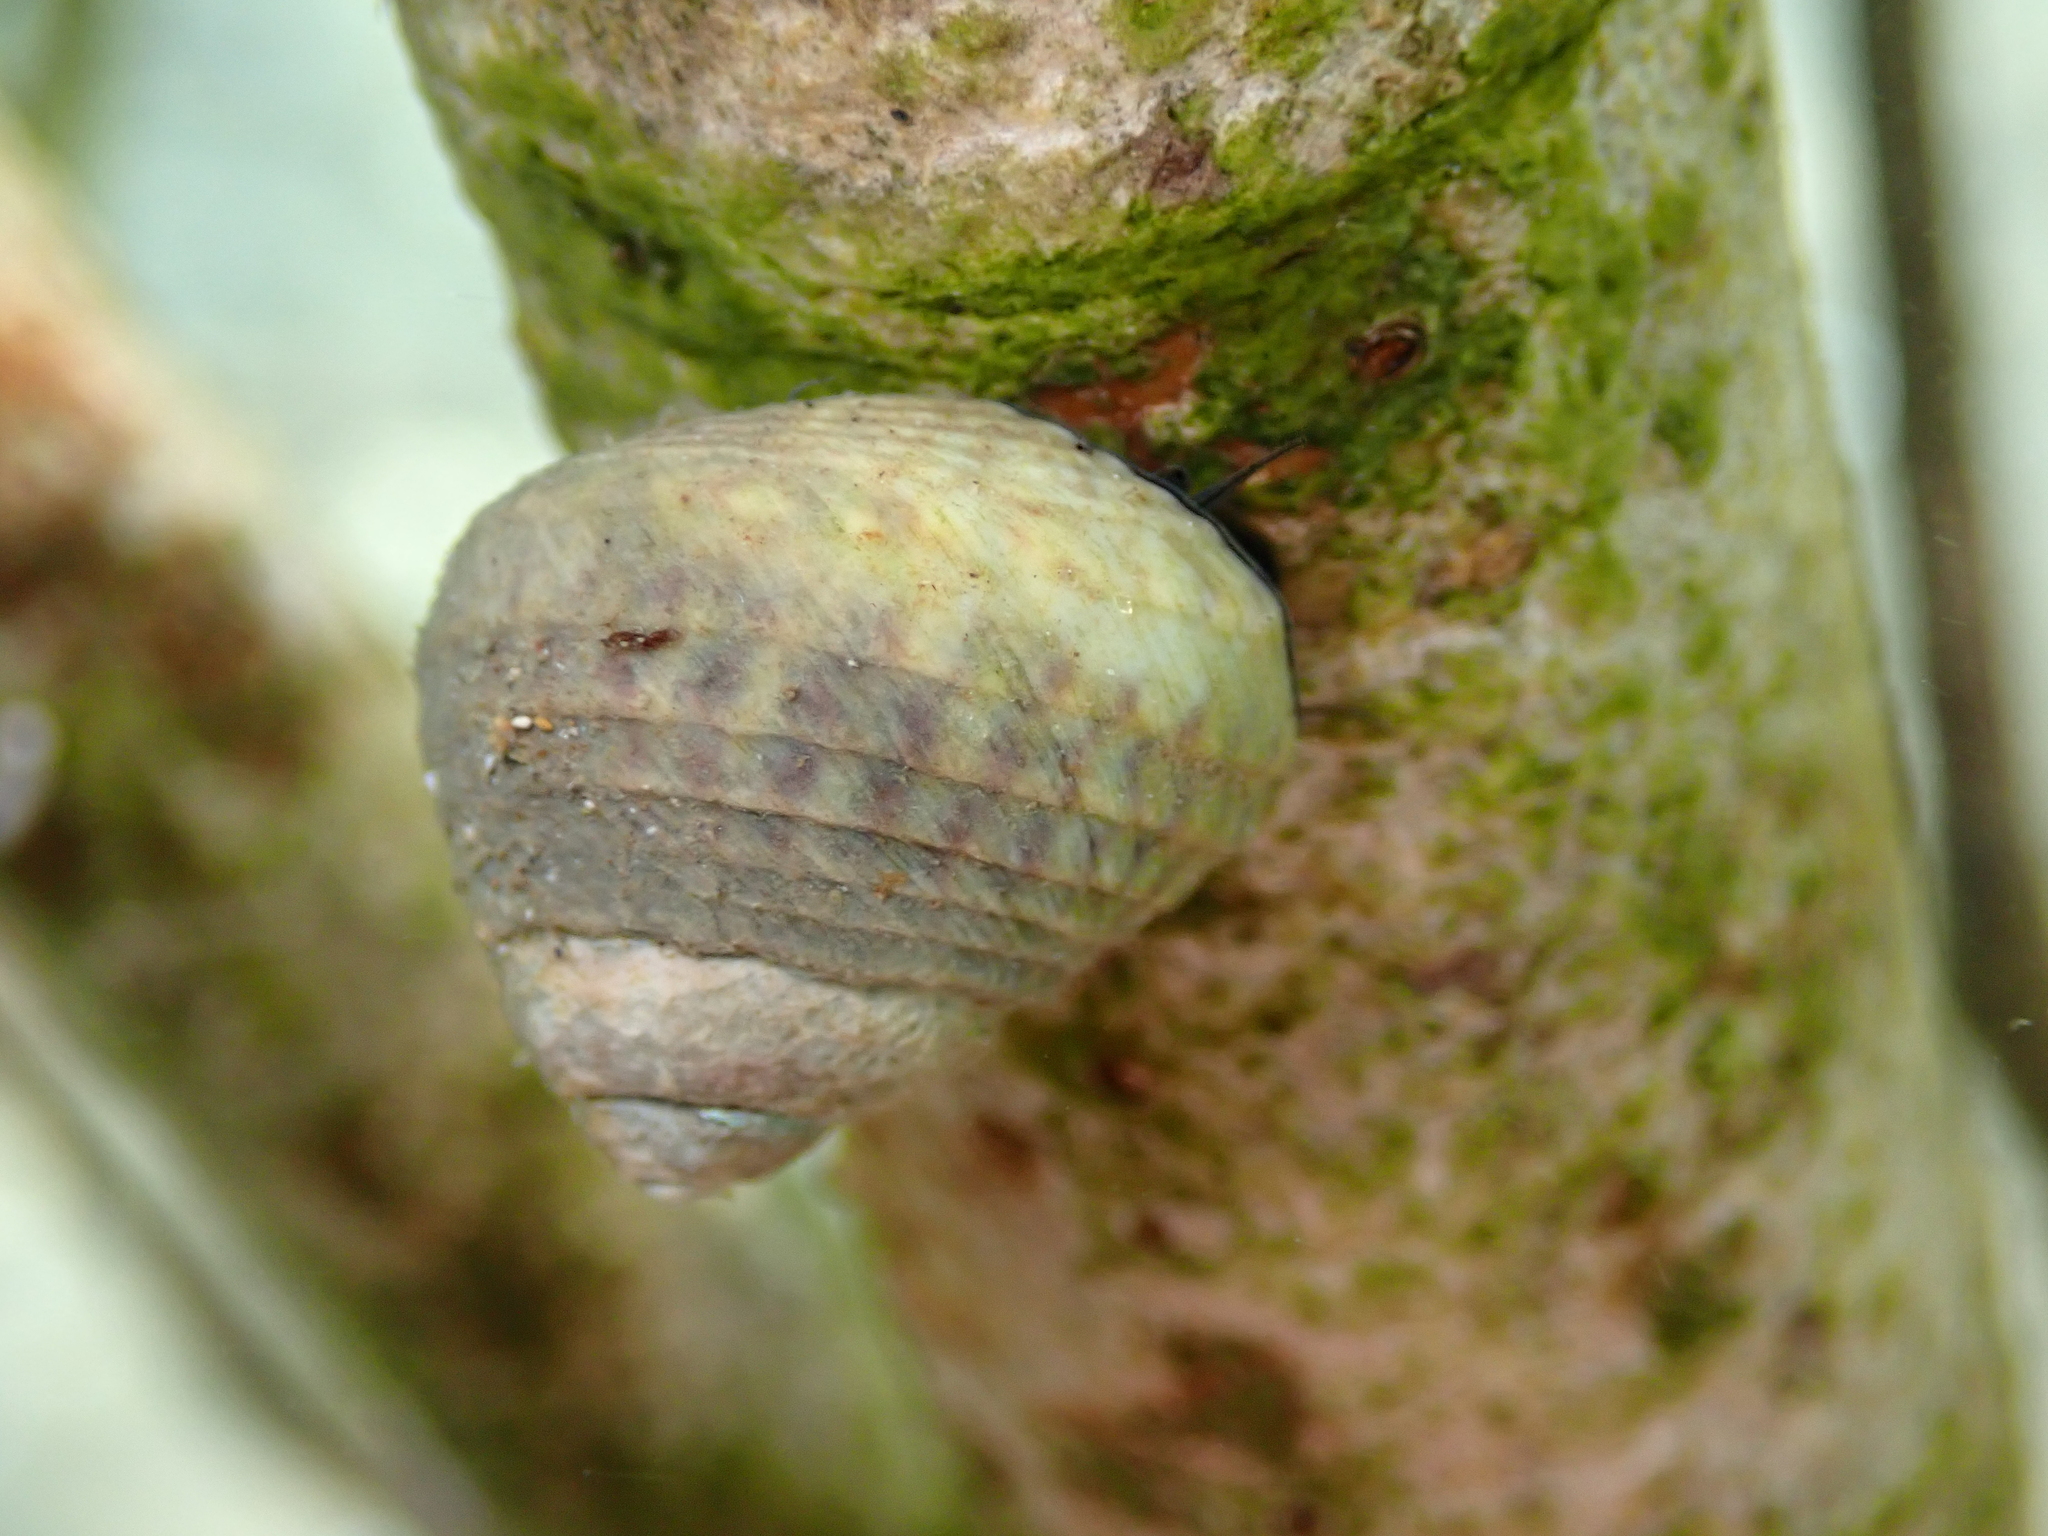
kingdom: Animalia
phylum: Mollusca
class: Gastropoda
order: Trochida
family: Trochidae
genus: Diloma
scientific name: Diloma subrostratum
